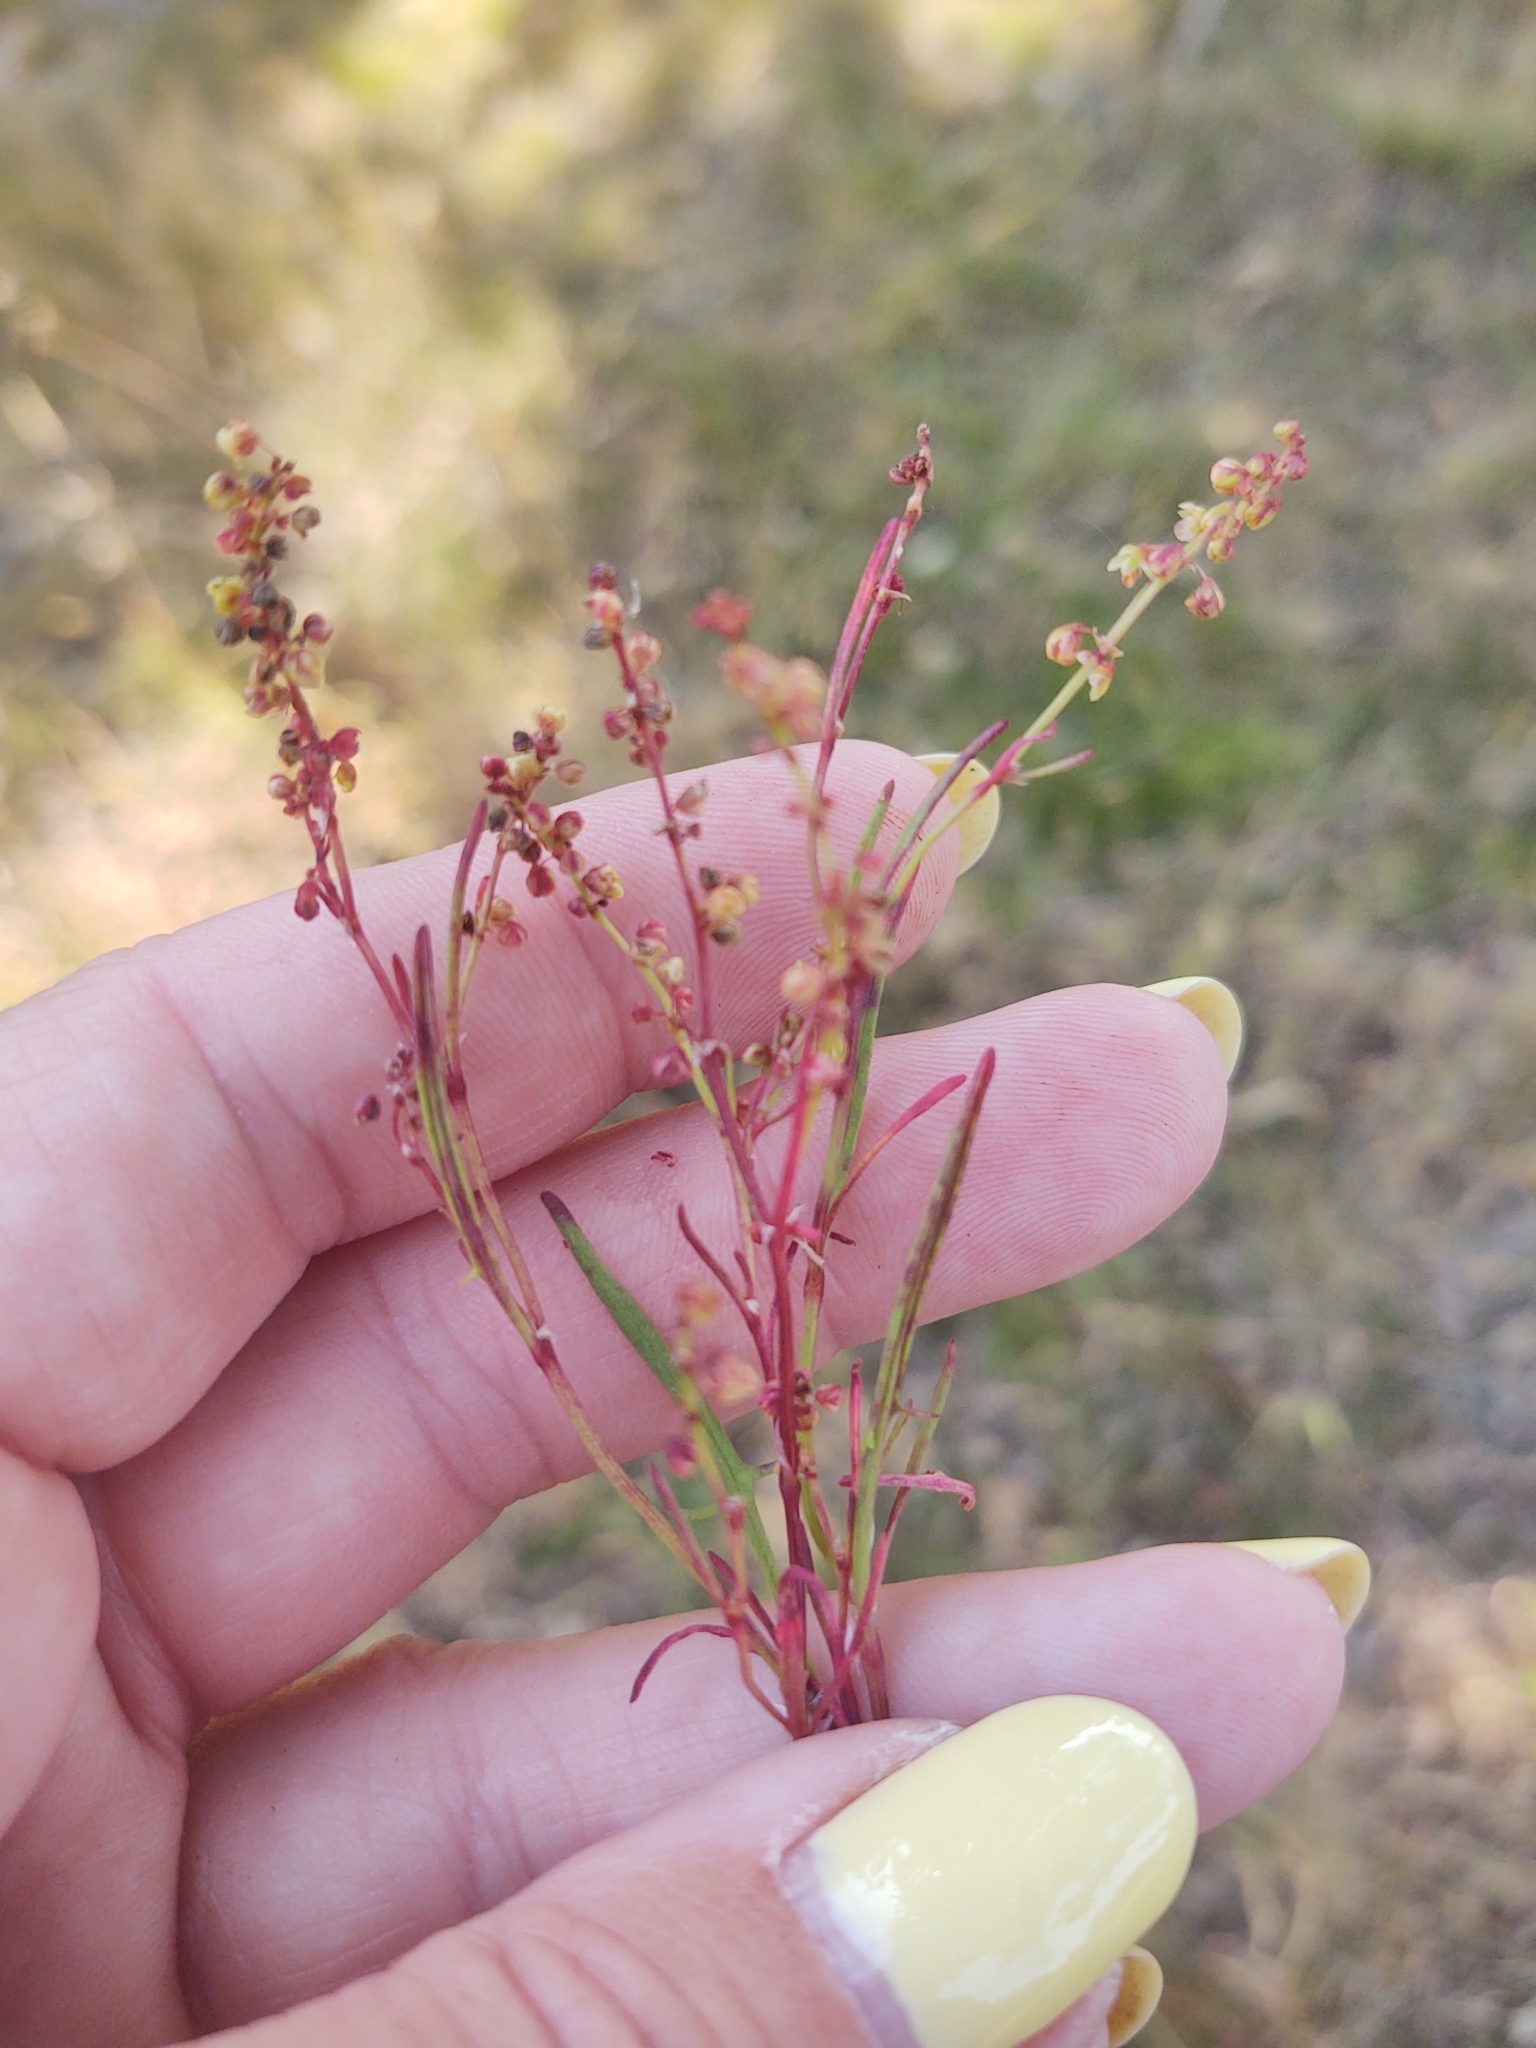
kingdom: Plantae
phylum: Tracheophyta
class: Magnoliopsida
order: Caryophyllales
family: Polygonaceae
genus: Rumex
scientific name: Rumex acetosella
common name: Common sheep sorrel
